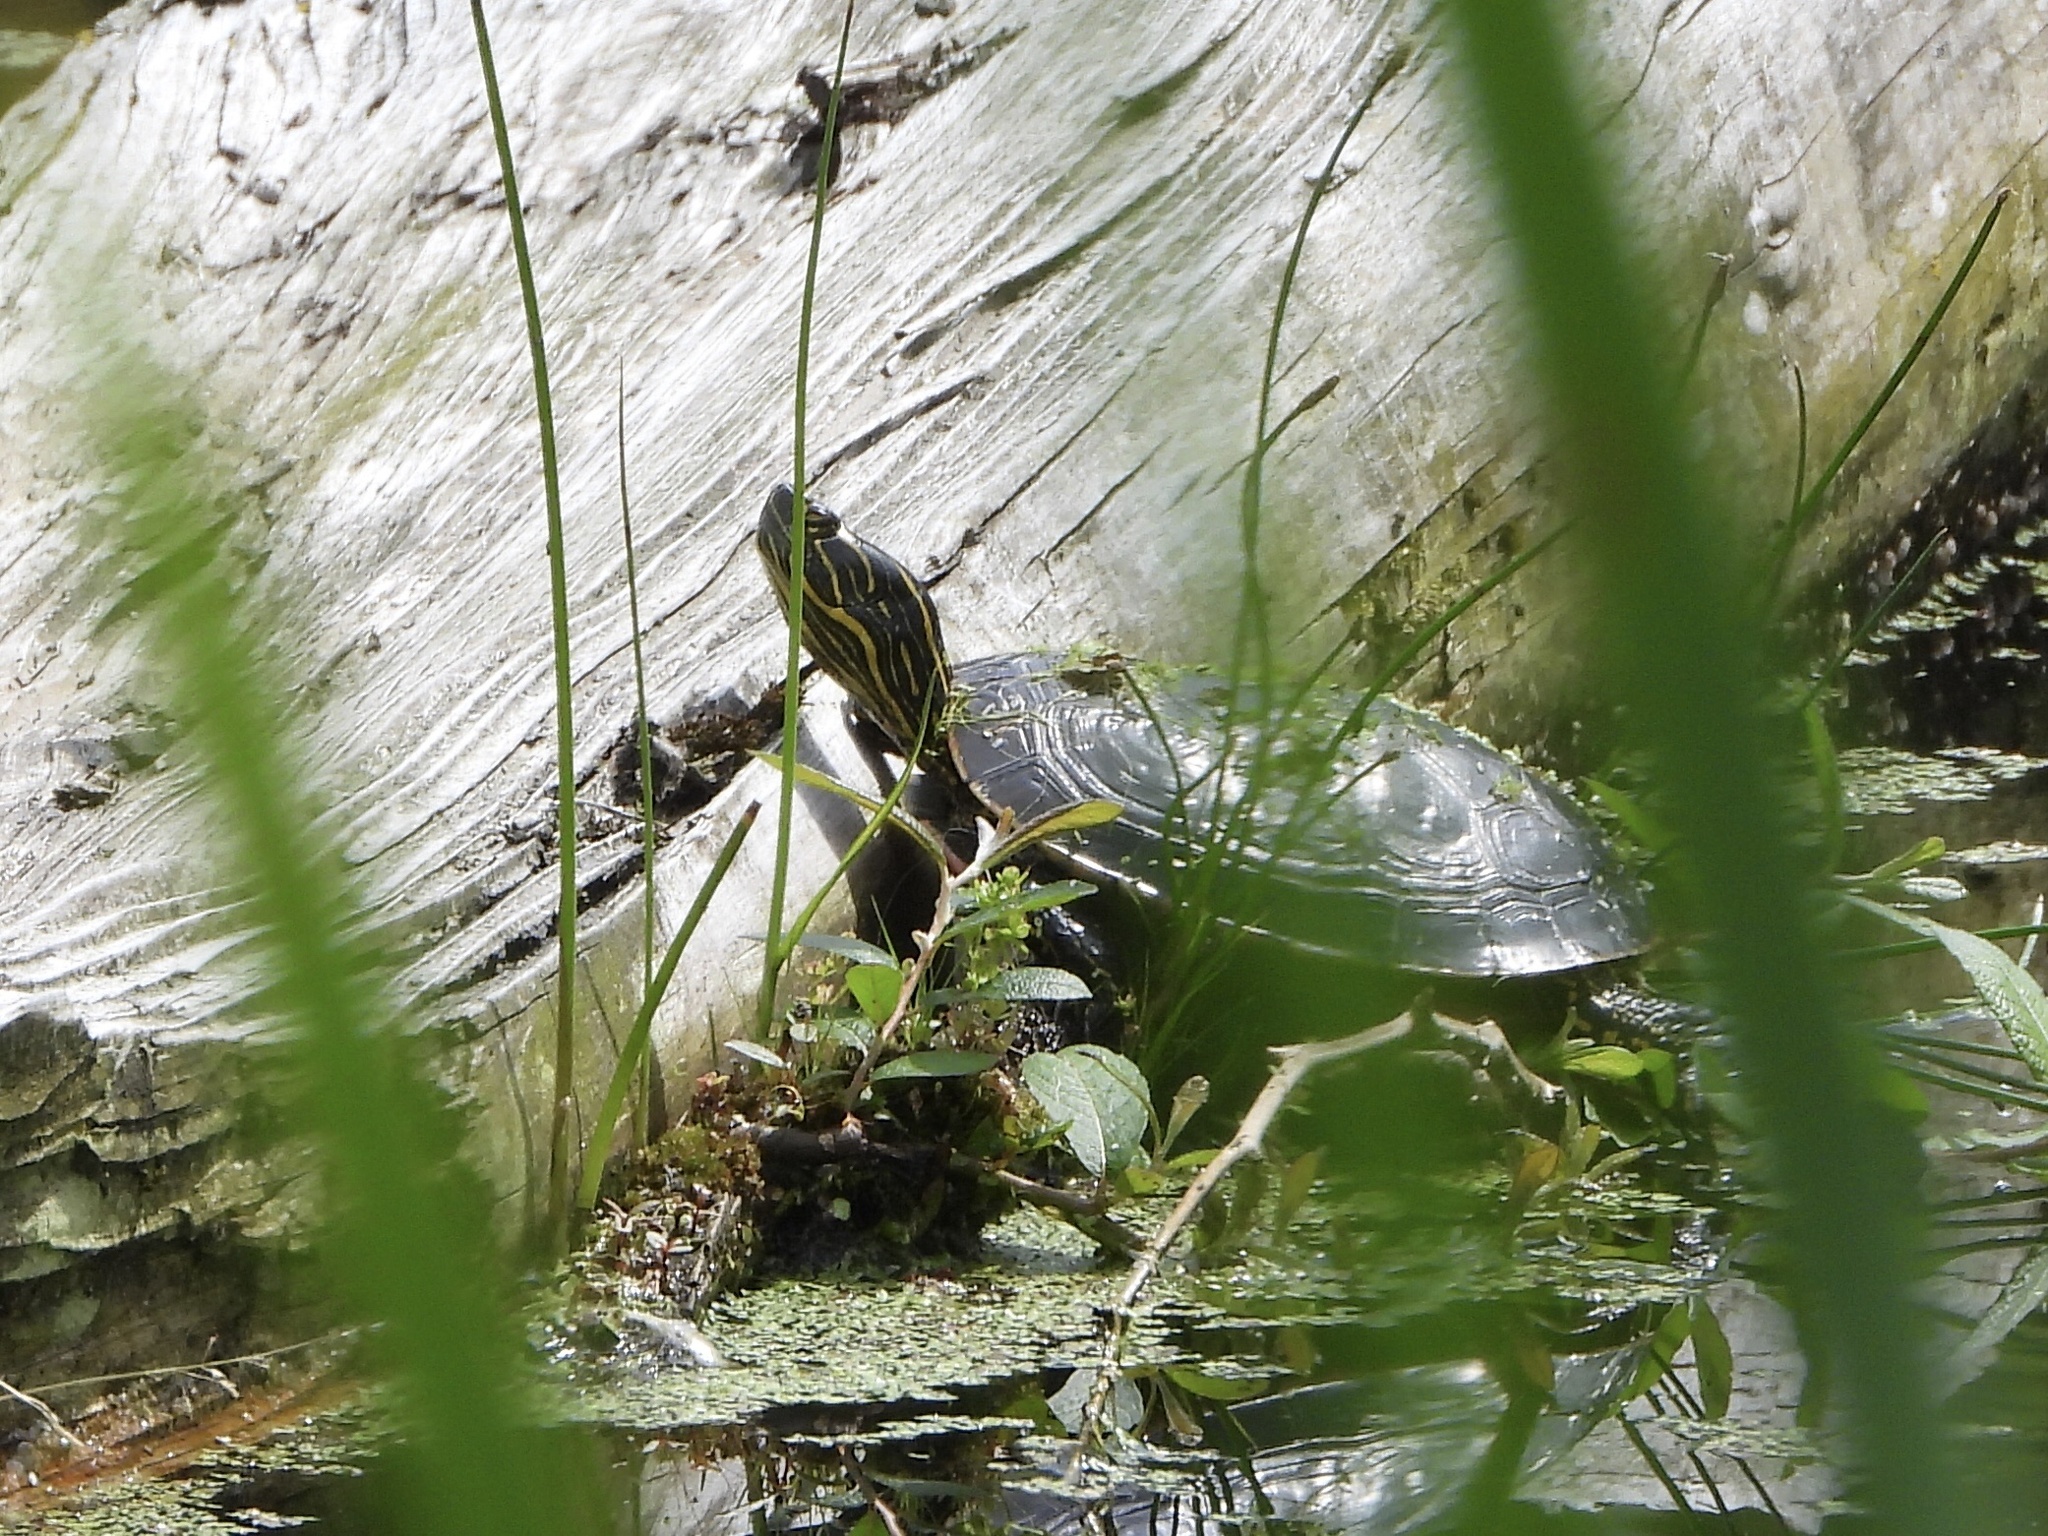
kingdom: Animalia
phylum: Chordata
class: Testudines
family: Emydidae
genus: Chrysemys
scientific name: Chrysemys picta
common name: Painted turtle
